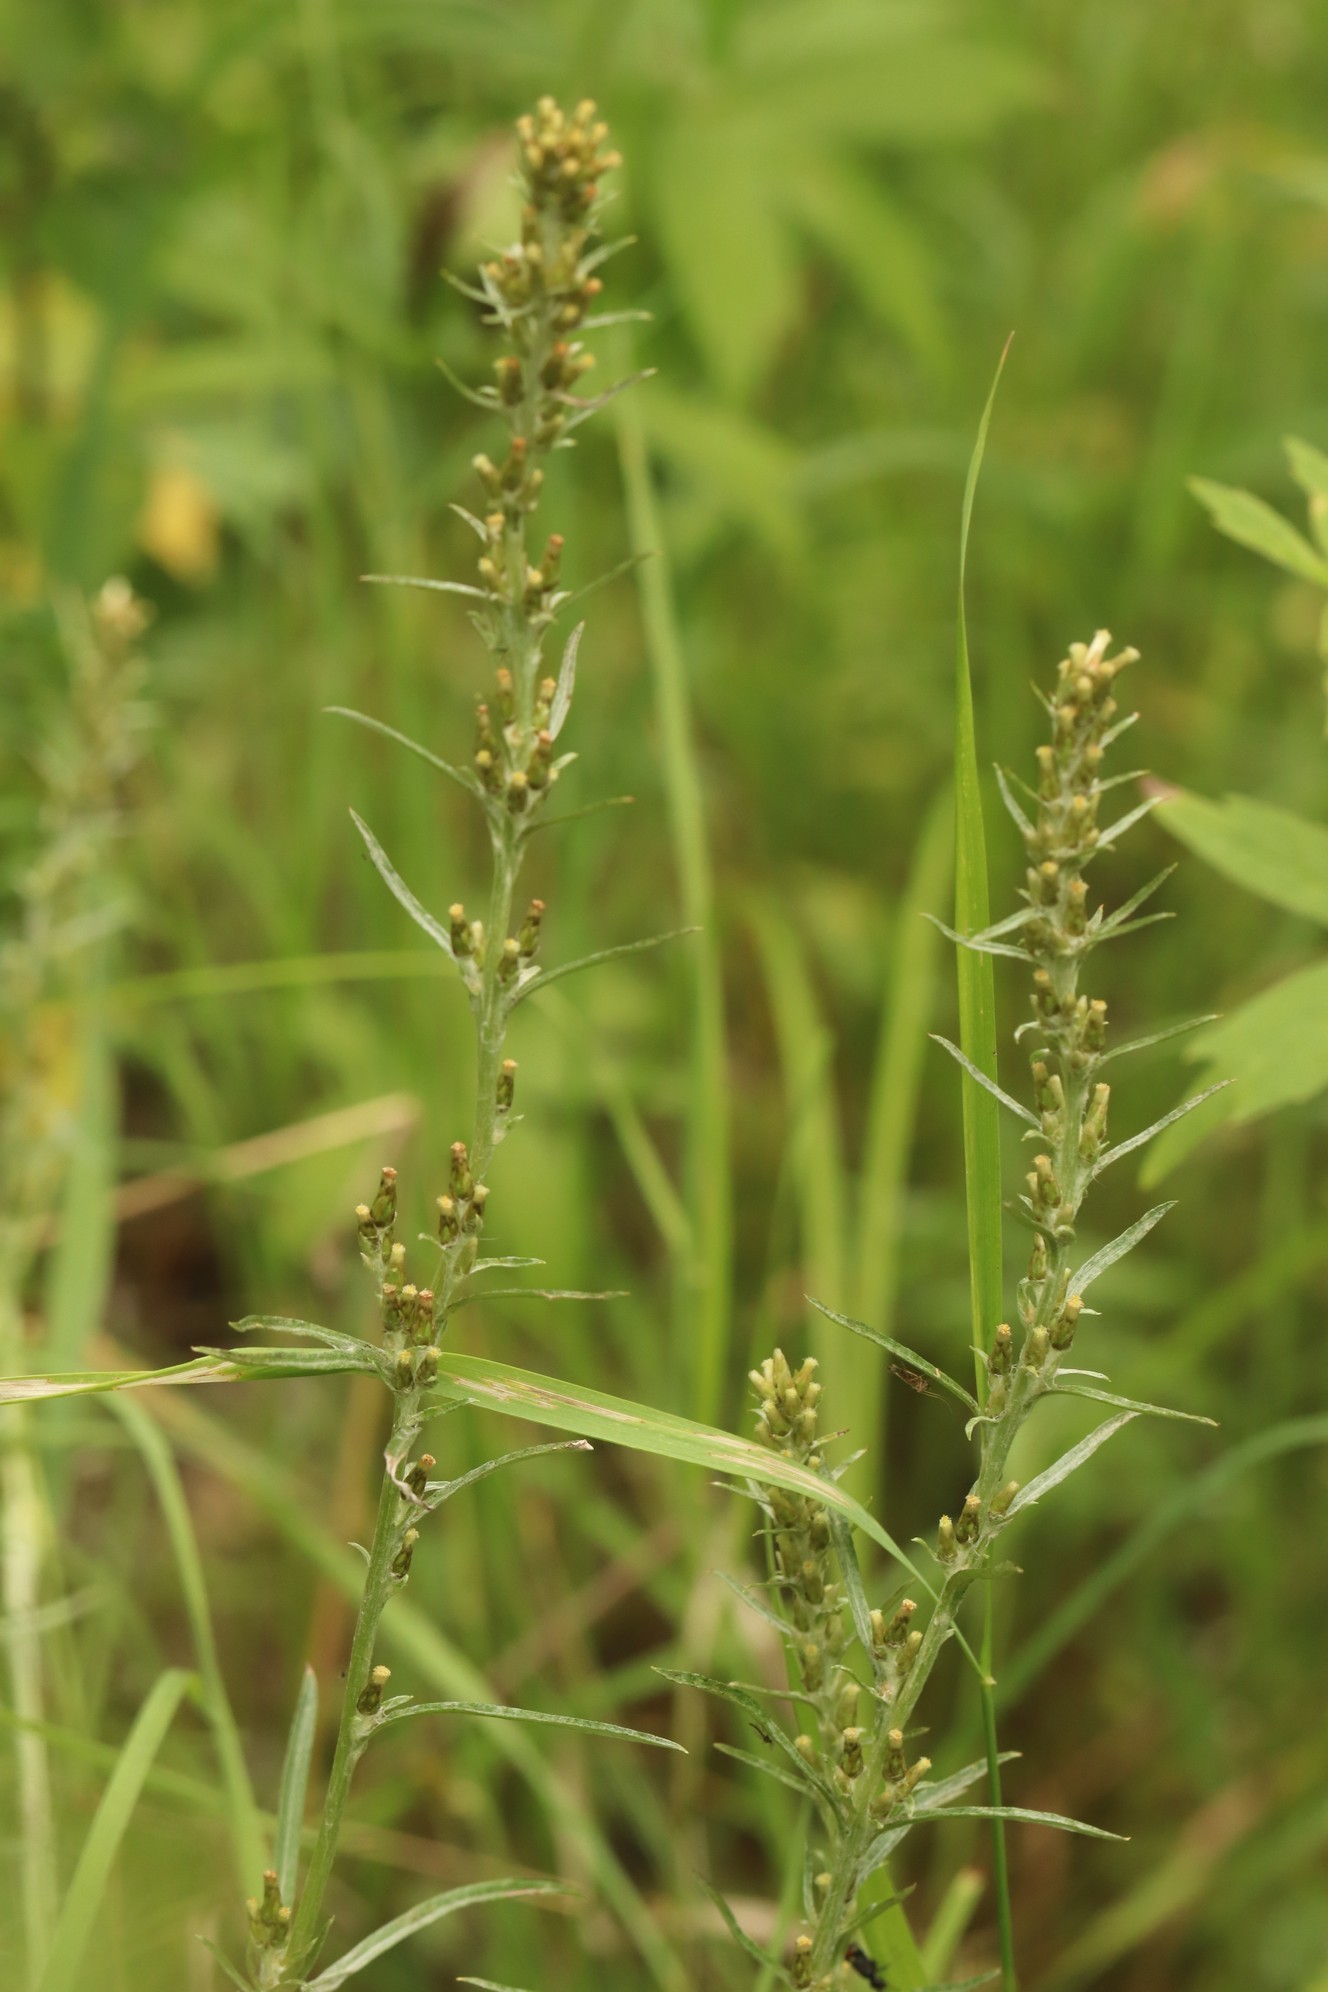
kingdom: Plantae
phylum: Tracheophyta
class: Magnoliopsida
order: Asterales
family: Asteraceae
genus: Omalotheca
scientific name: Omalotheca sylvatica
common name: Heath cudweed
